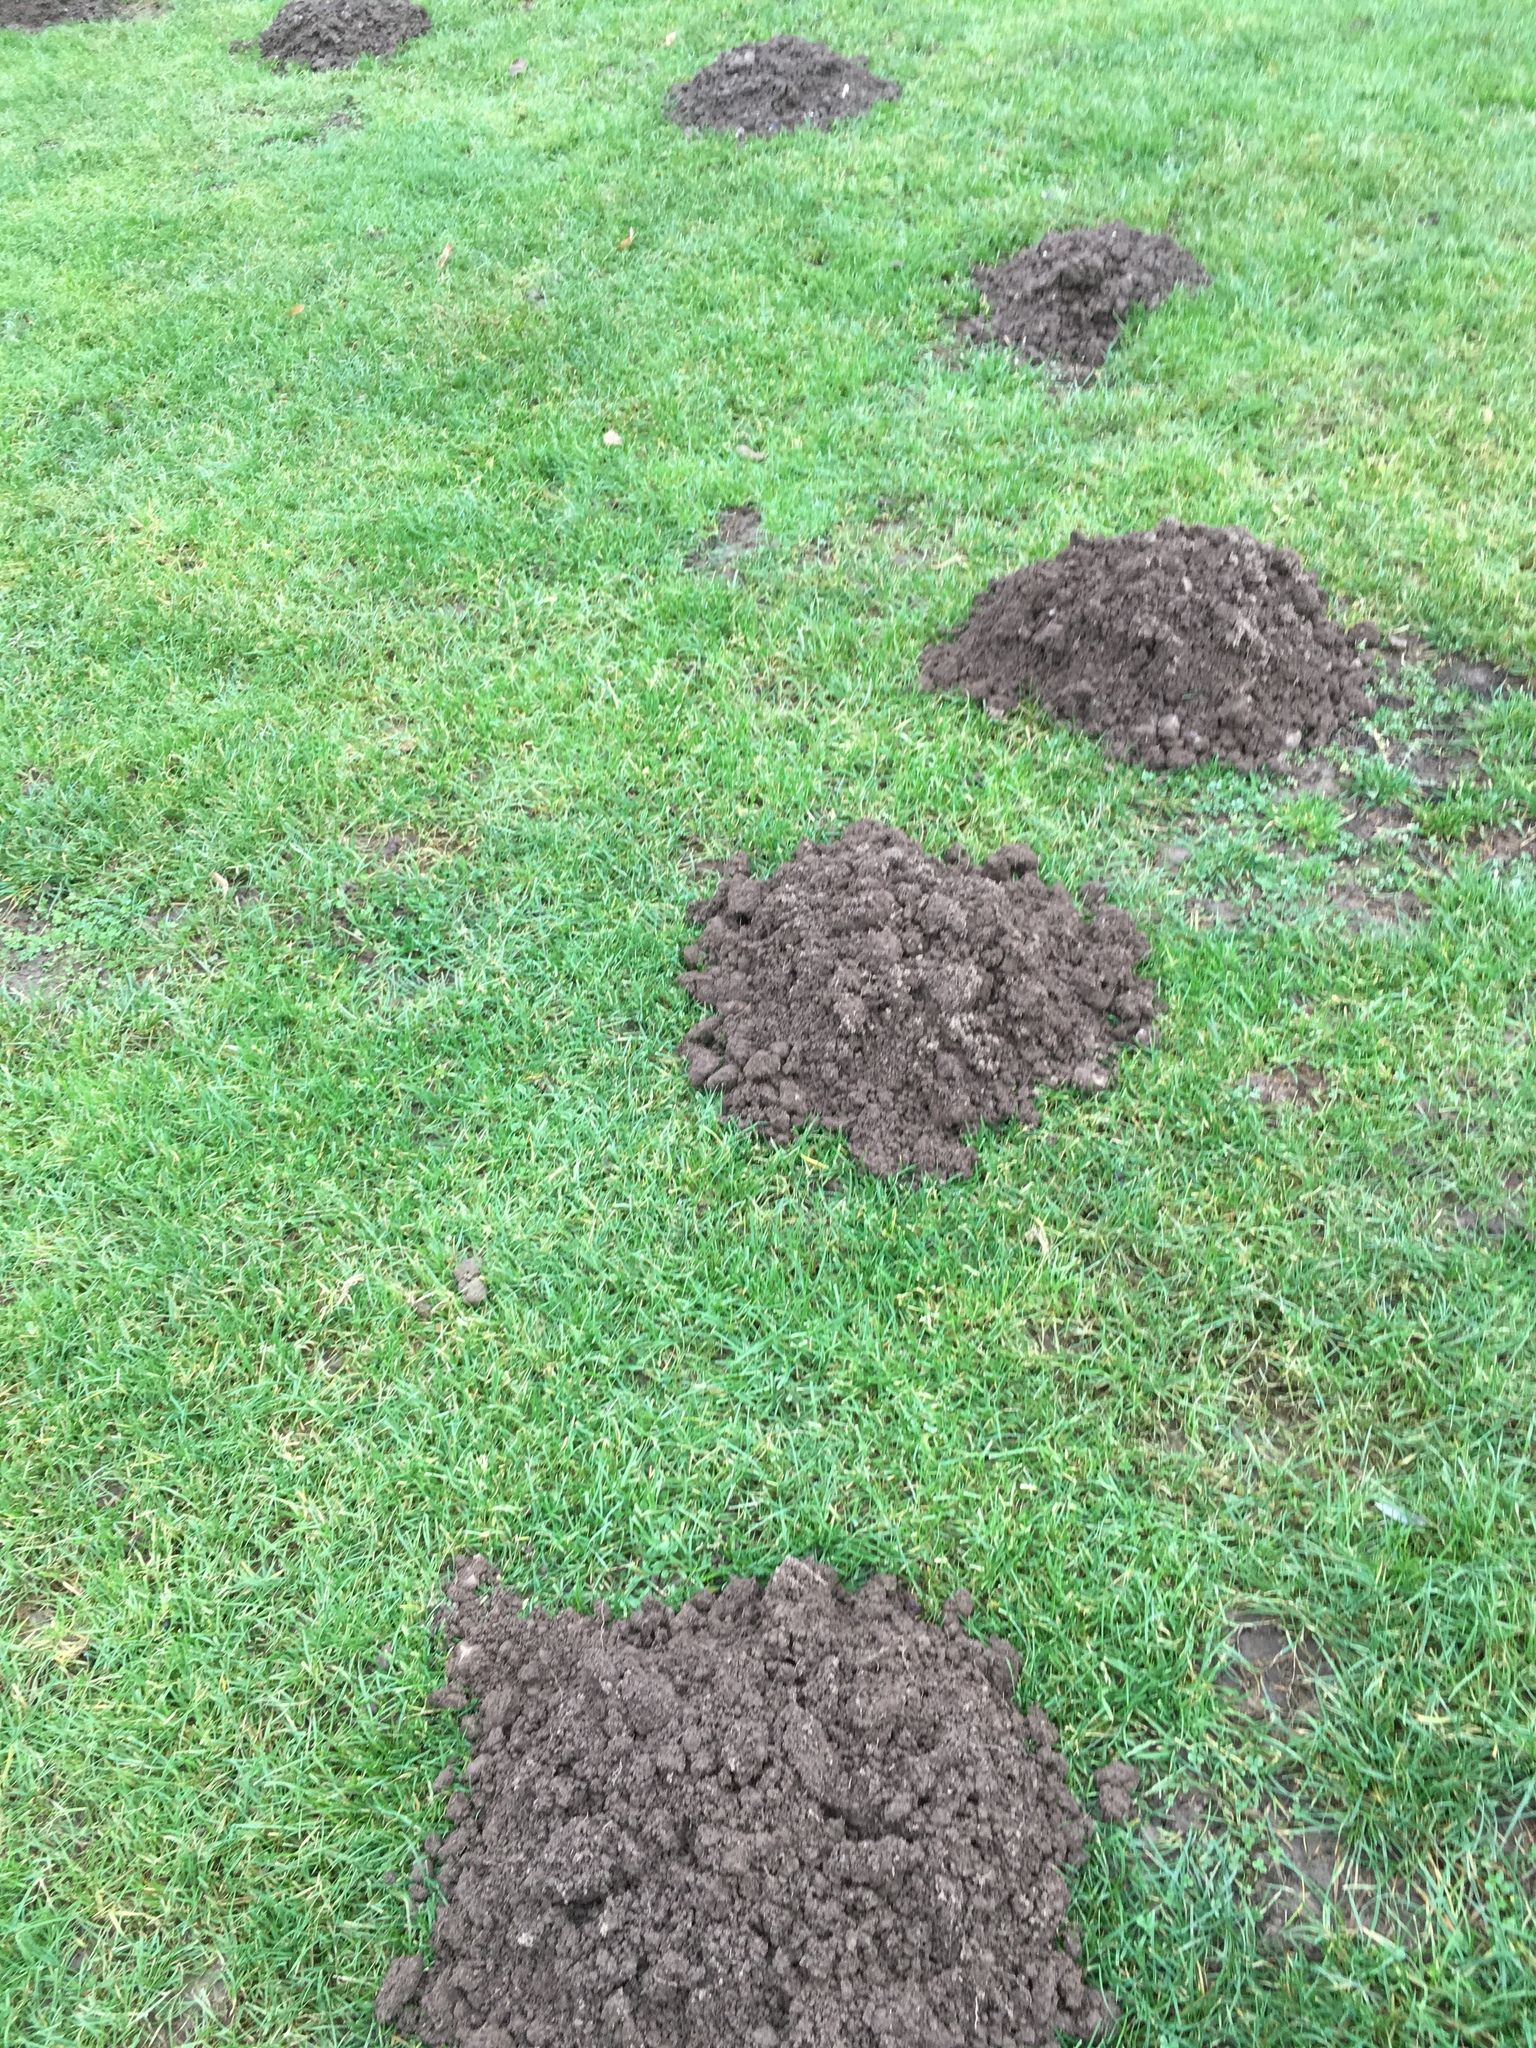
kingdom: Animalia
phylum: Chordata
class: Mammalia
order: Soricomorpha
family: Talpidae
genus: Talpa
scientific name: Talpa europaea
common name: European mole
